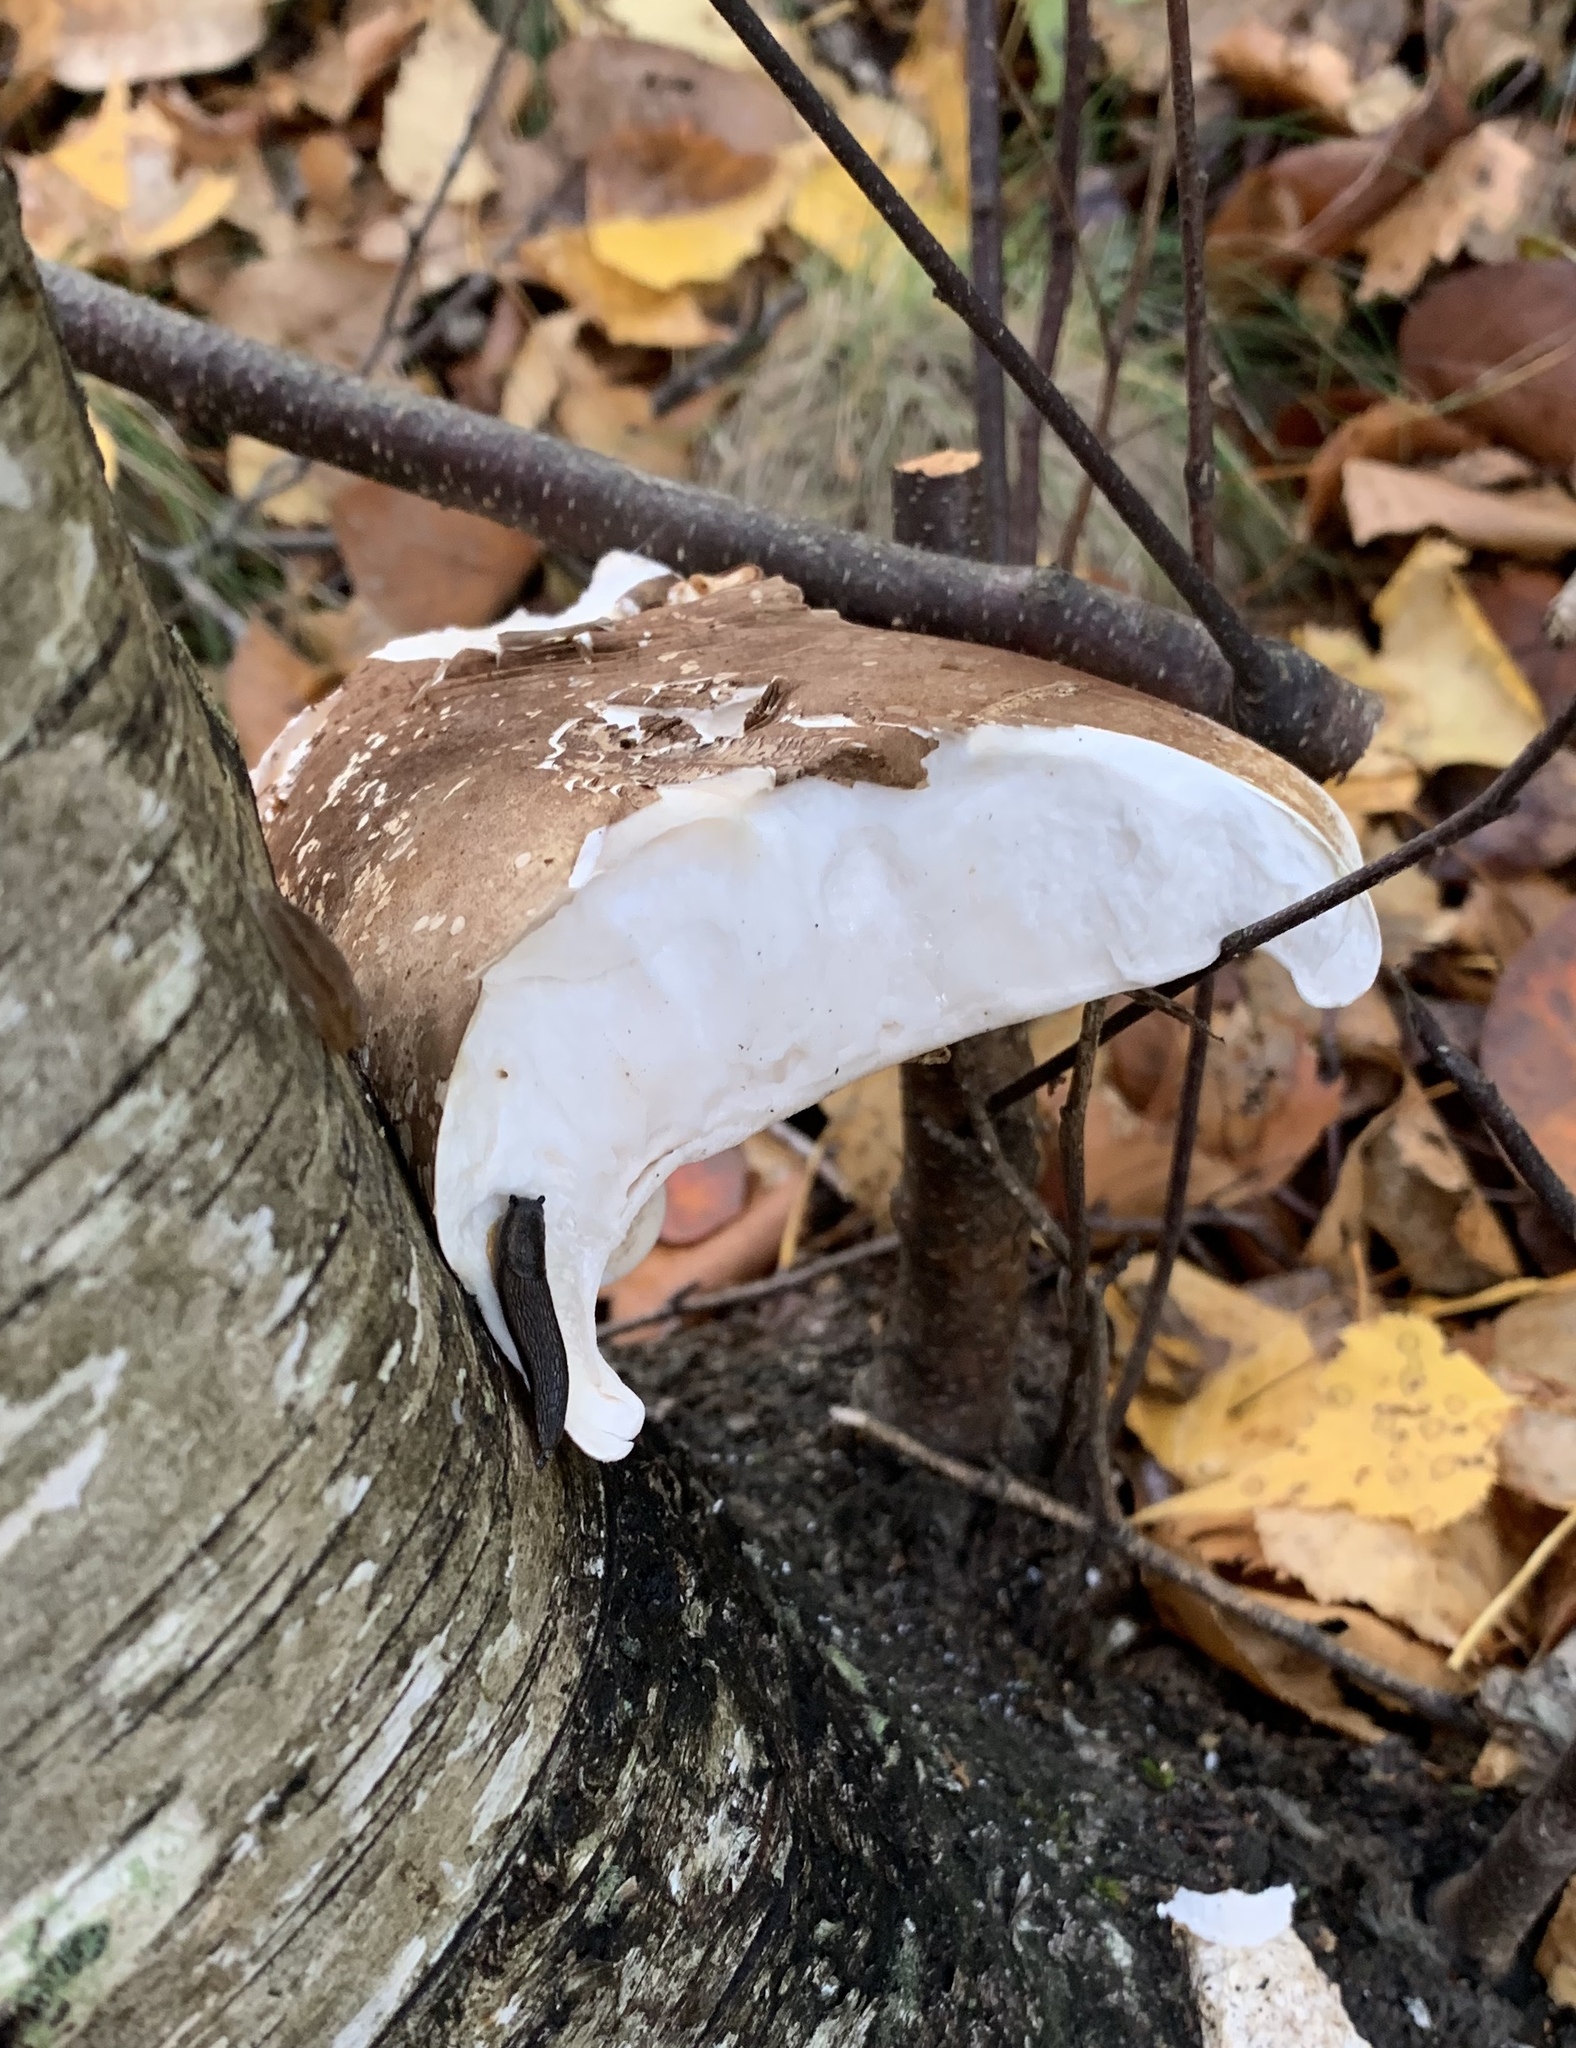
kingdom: Fungi
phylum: Basidiomycota
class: Agaricomycetes
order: Polyporales
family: Fomitopsidaceae
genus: Fomitopsis
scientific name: Fomitopsis betulina
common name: Birch polypore
